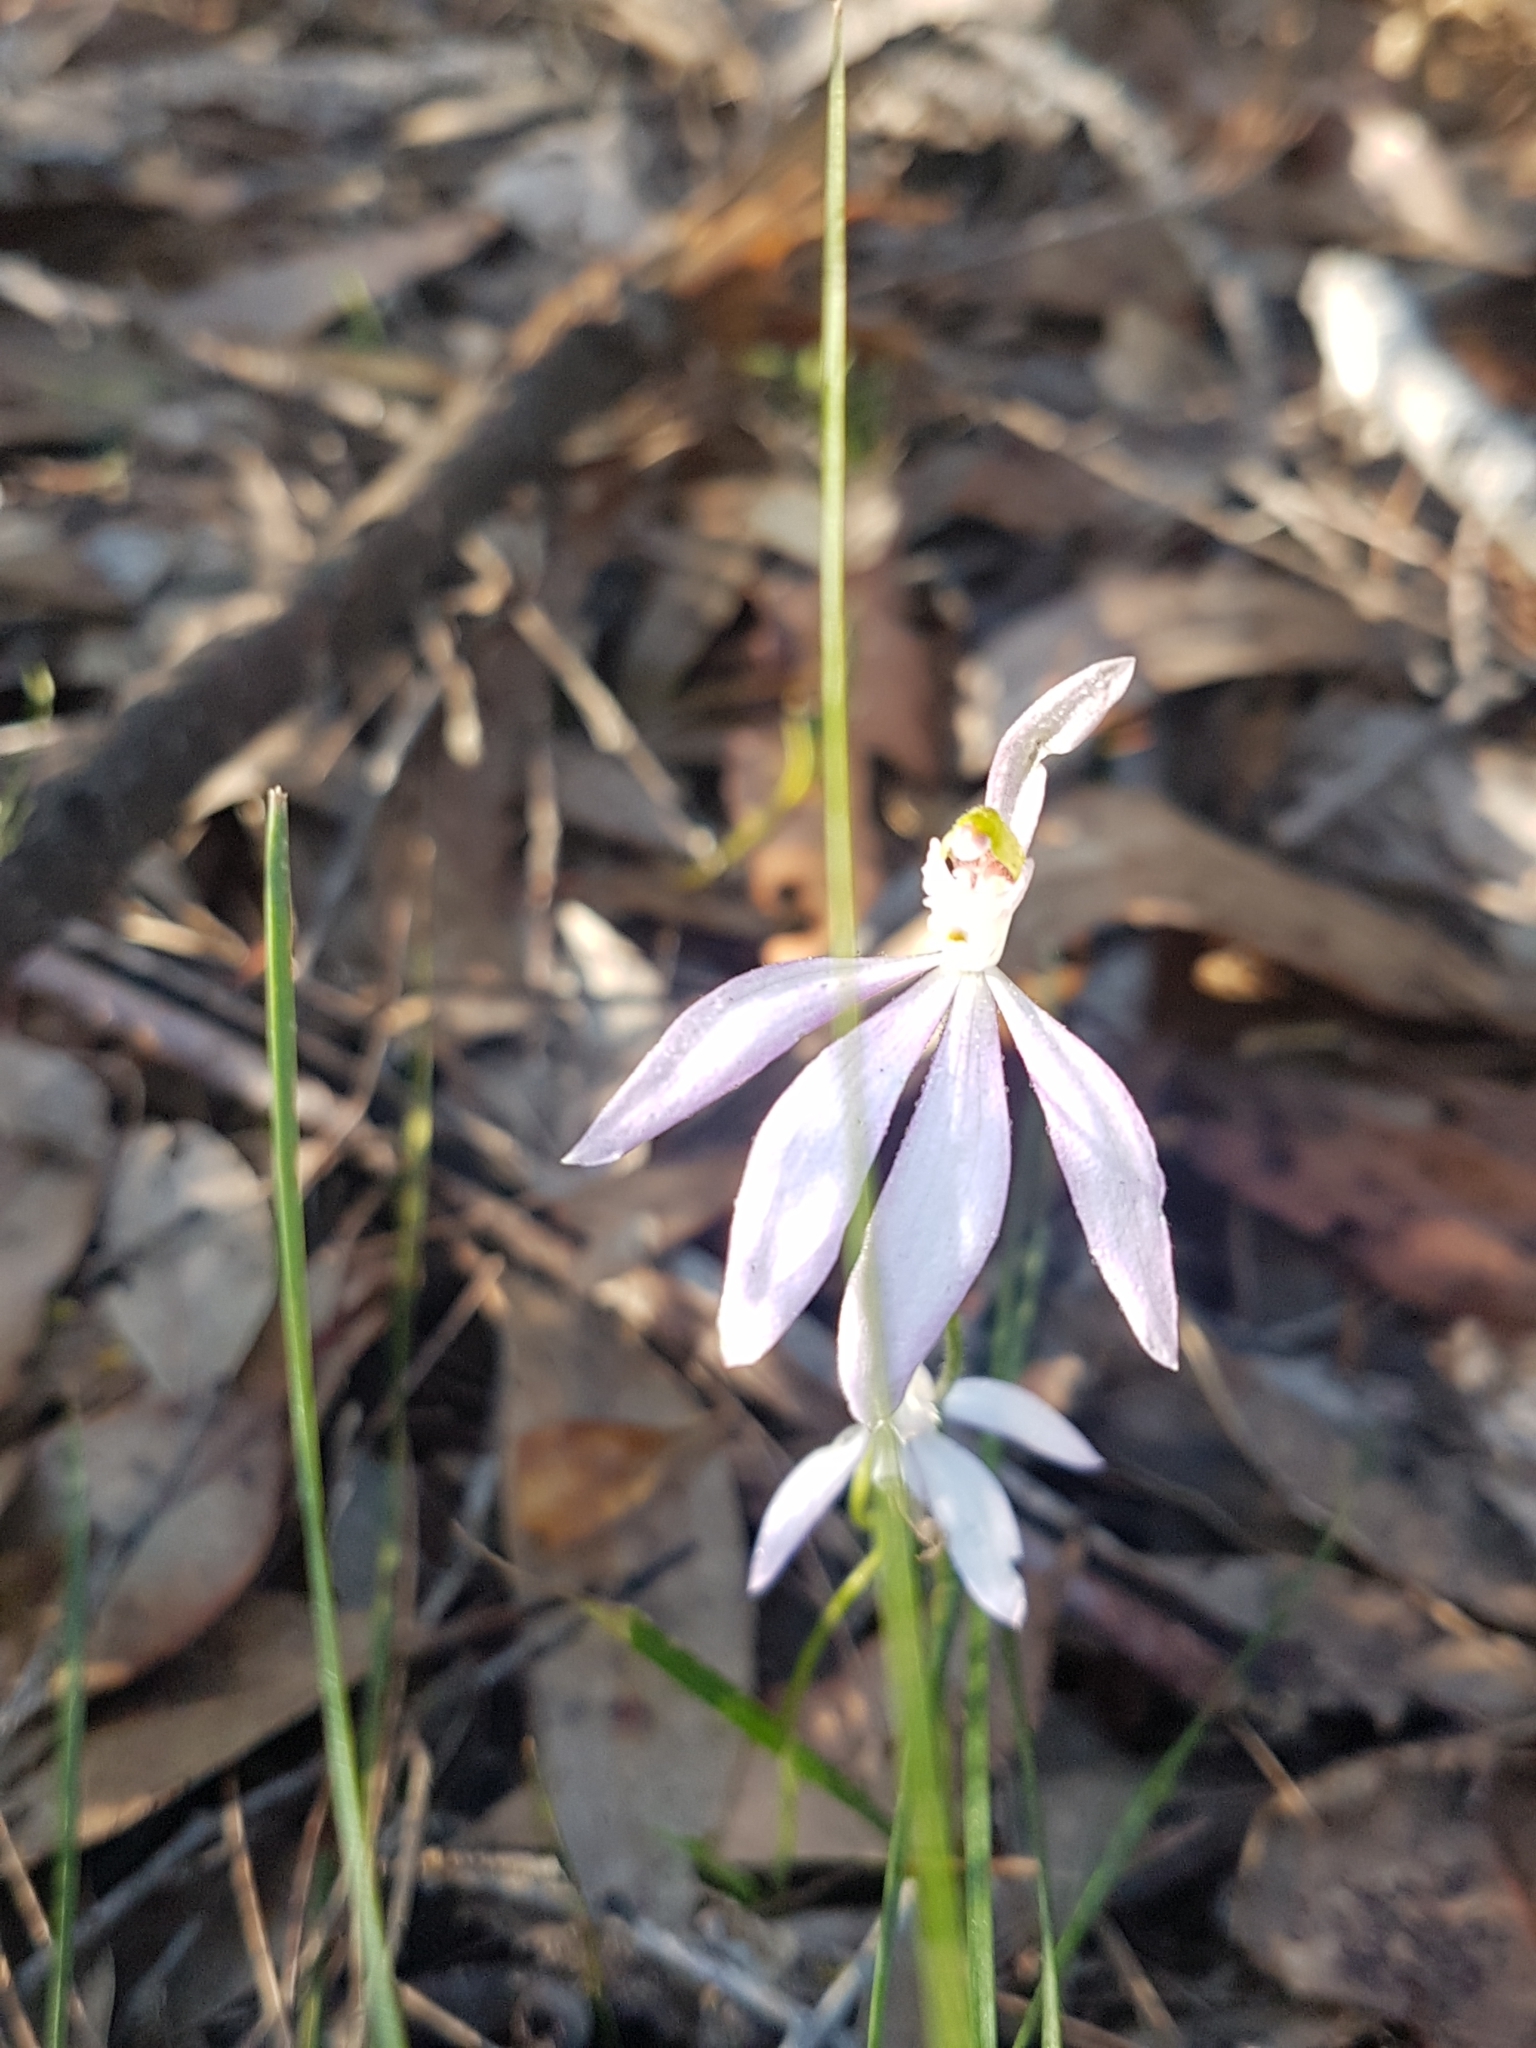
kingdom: Plantae
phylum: Tracheophyta
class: Liliopsida
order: Asparagales
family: Orchidaceae
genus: Caladenia
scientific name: Caladenia catenata
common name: White caladenia
